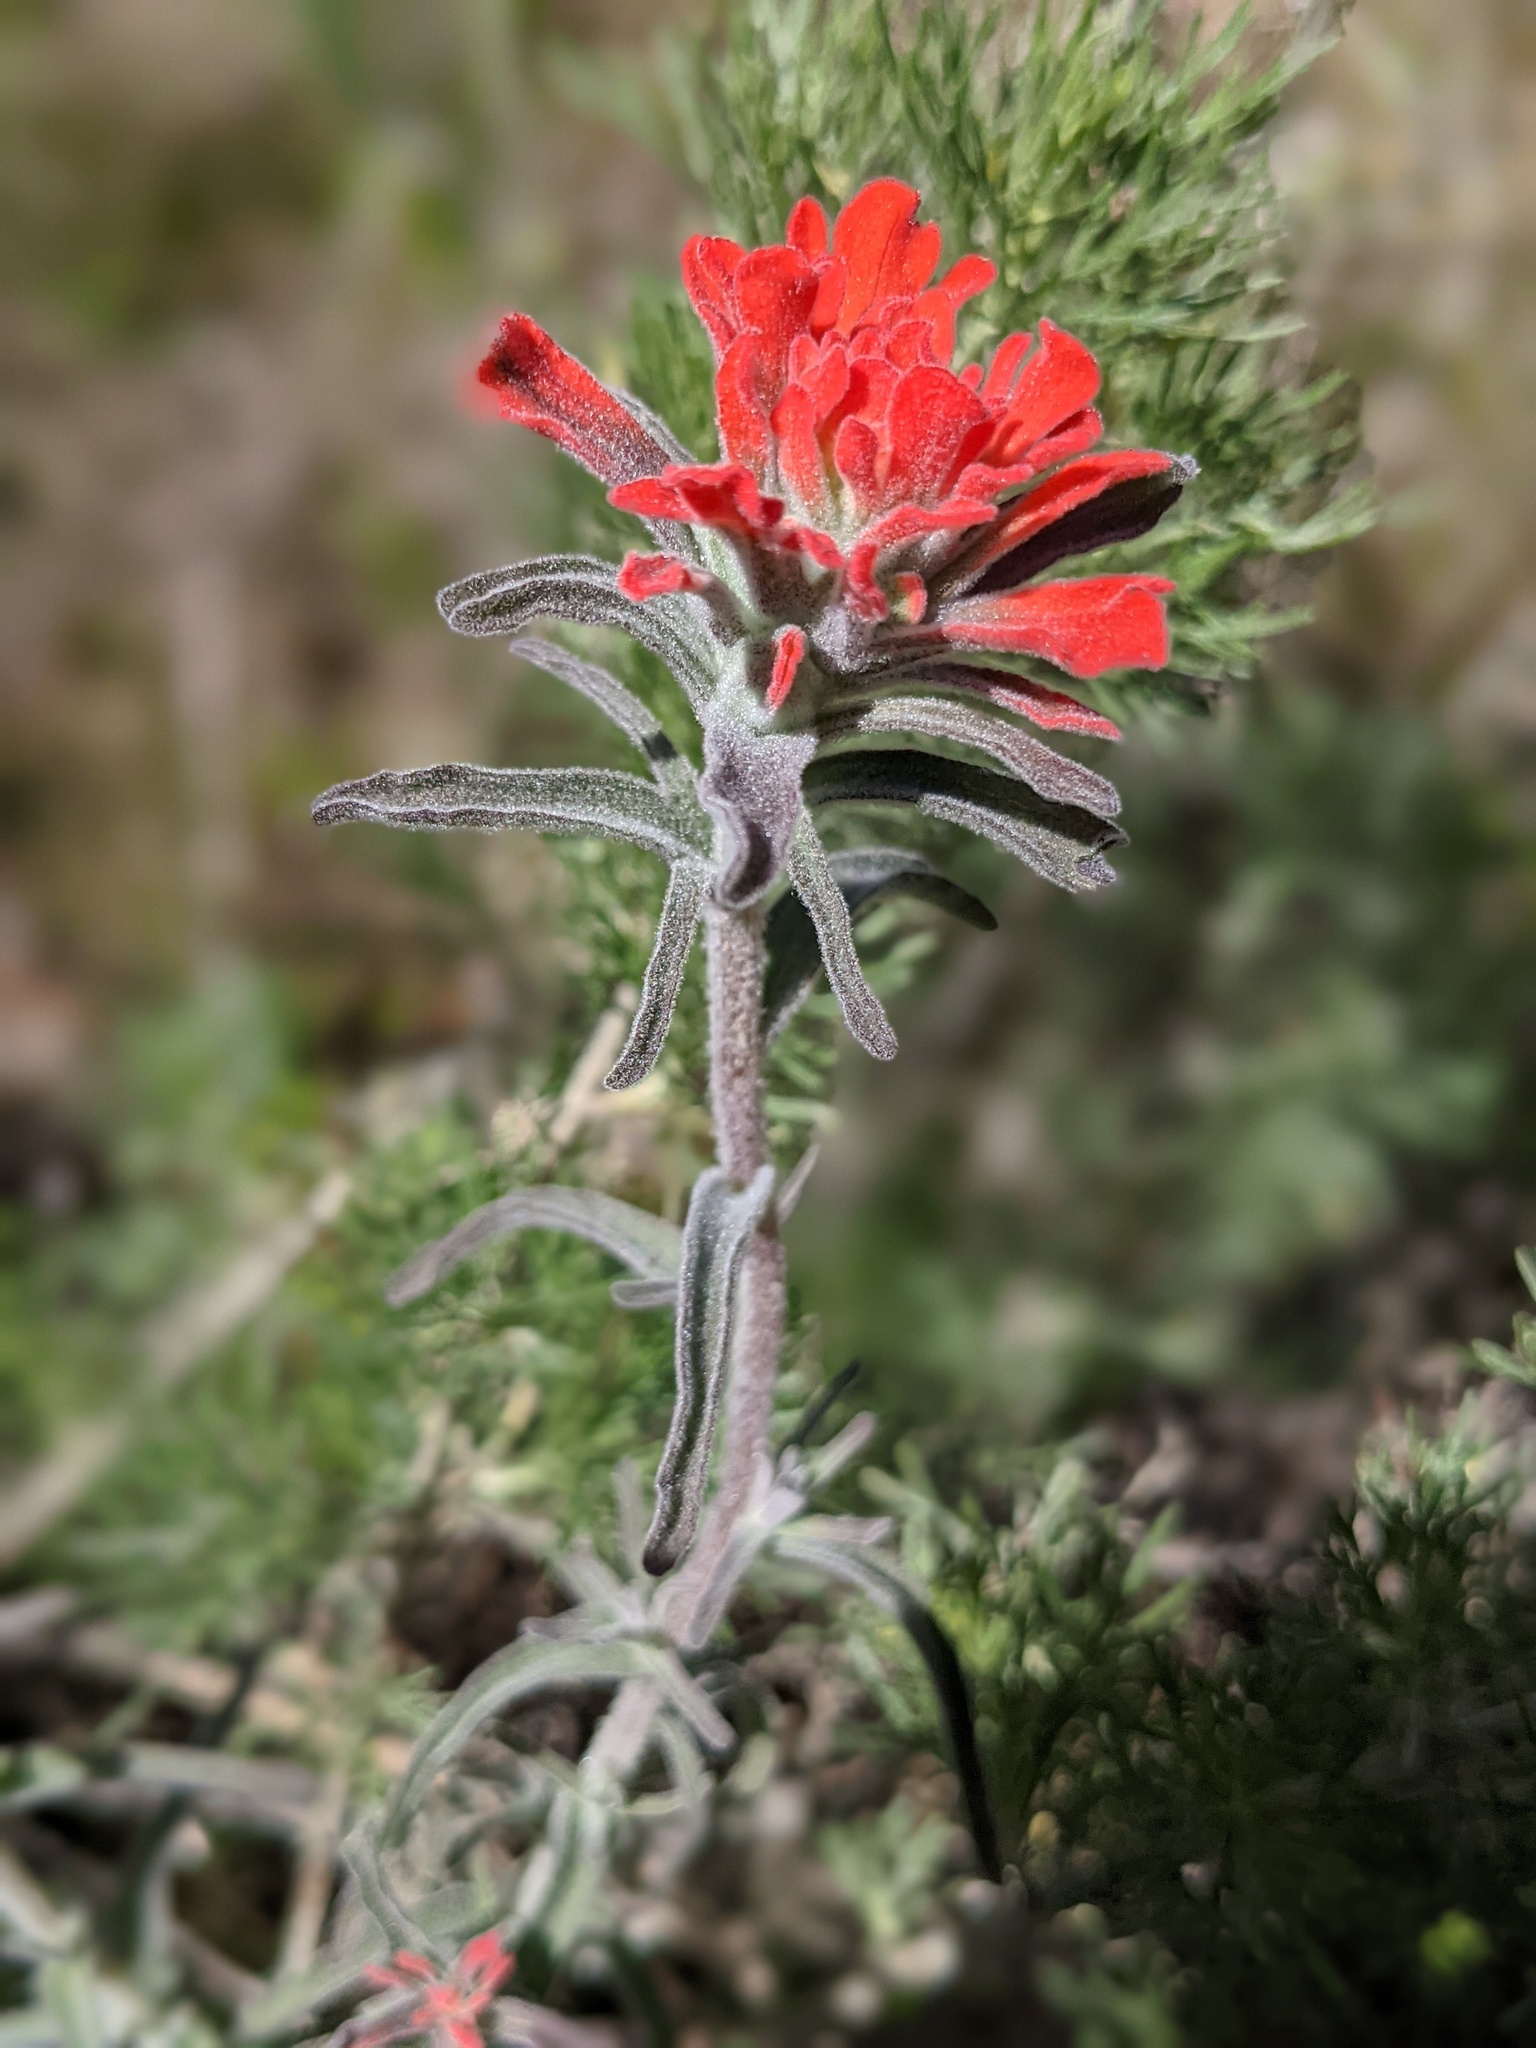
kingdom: Plantae
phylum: Tracheophyta
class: Magnoliopsida
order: Lamiales
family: Orobanchaceae
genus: Castilleja
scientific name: Castilleja foliolosa
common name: Woolly indian paintbrush
